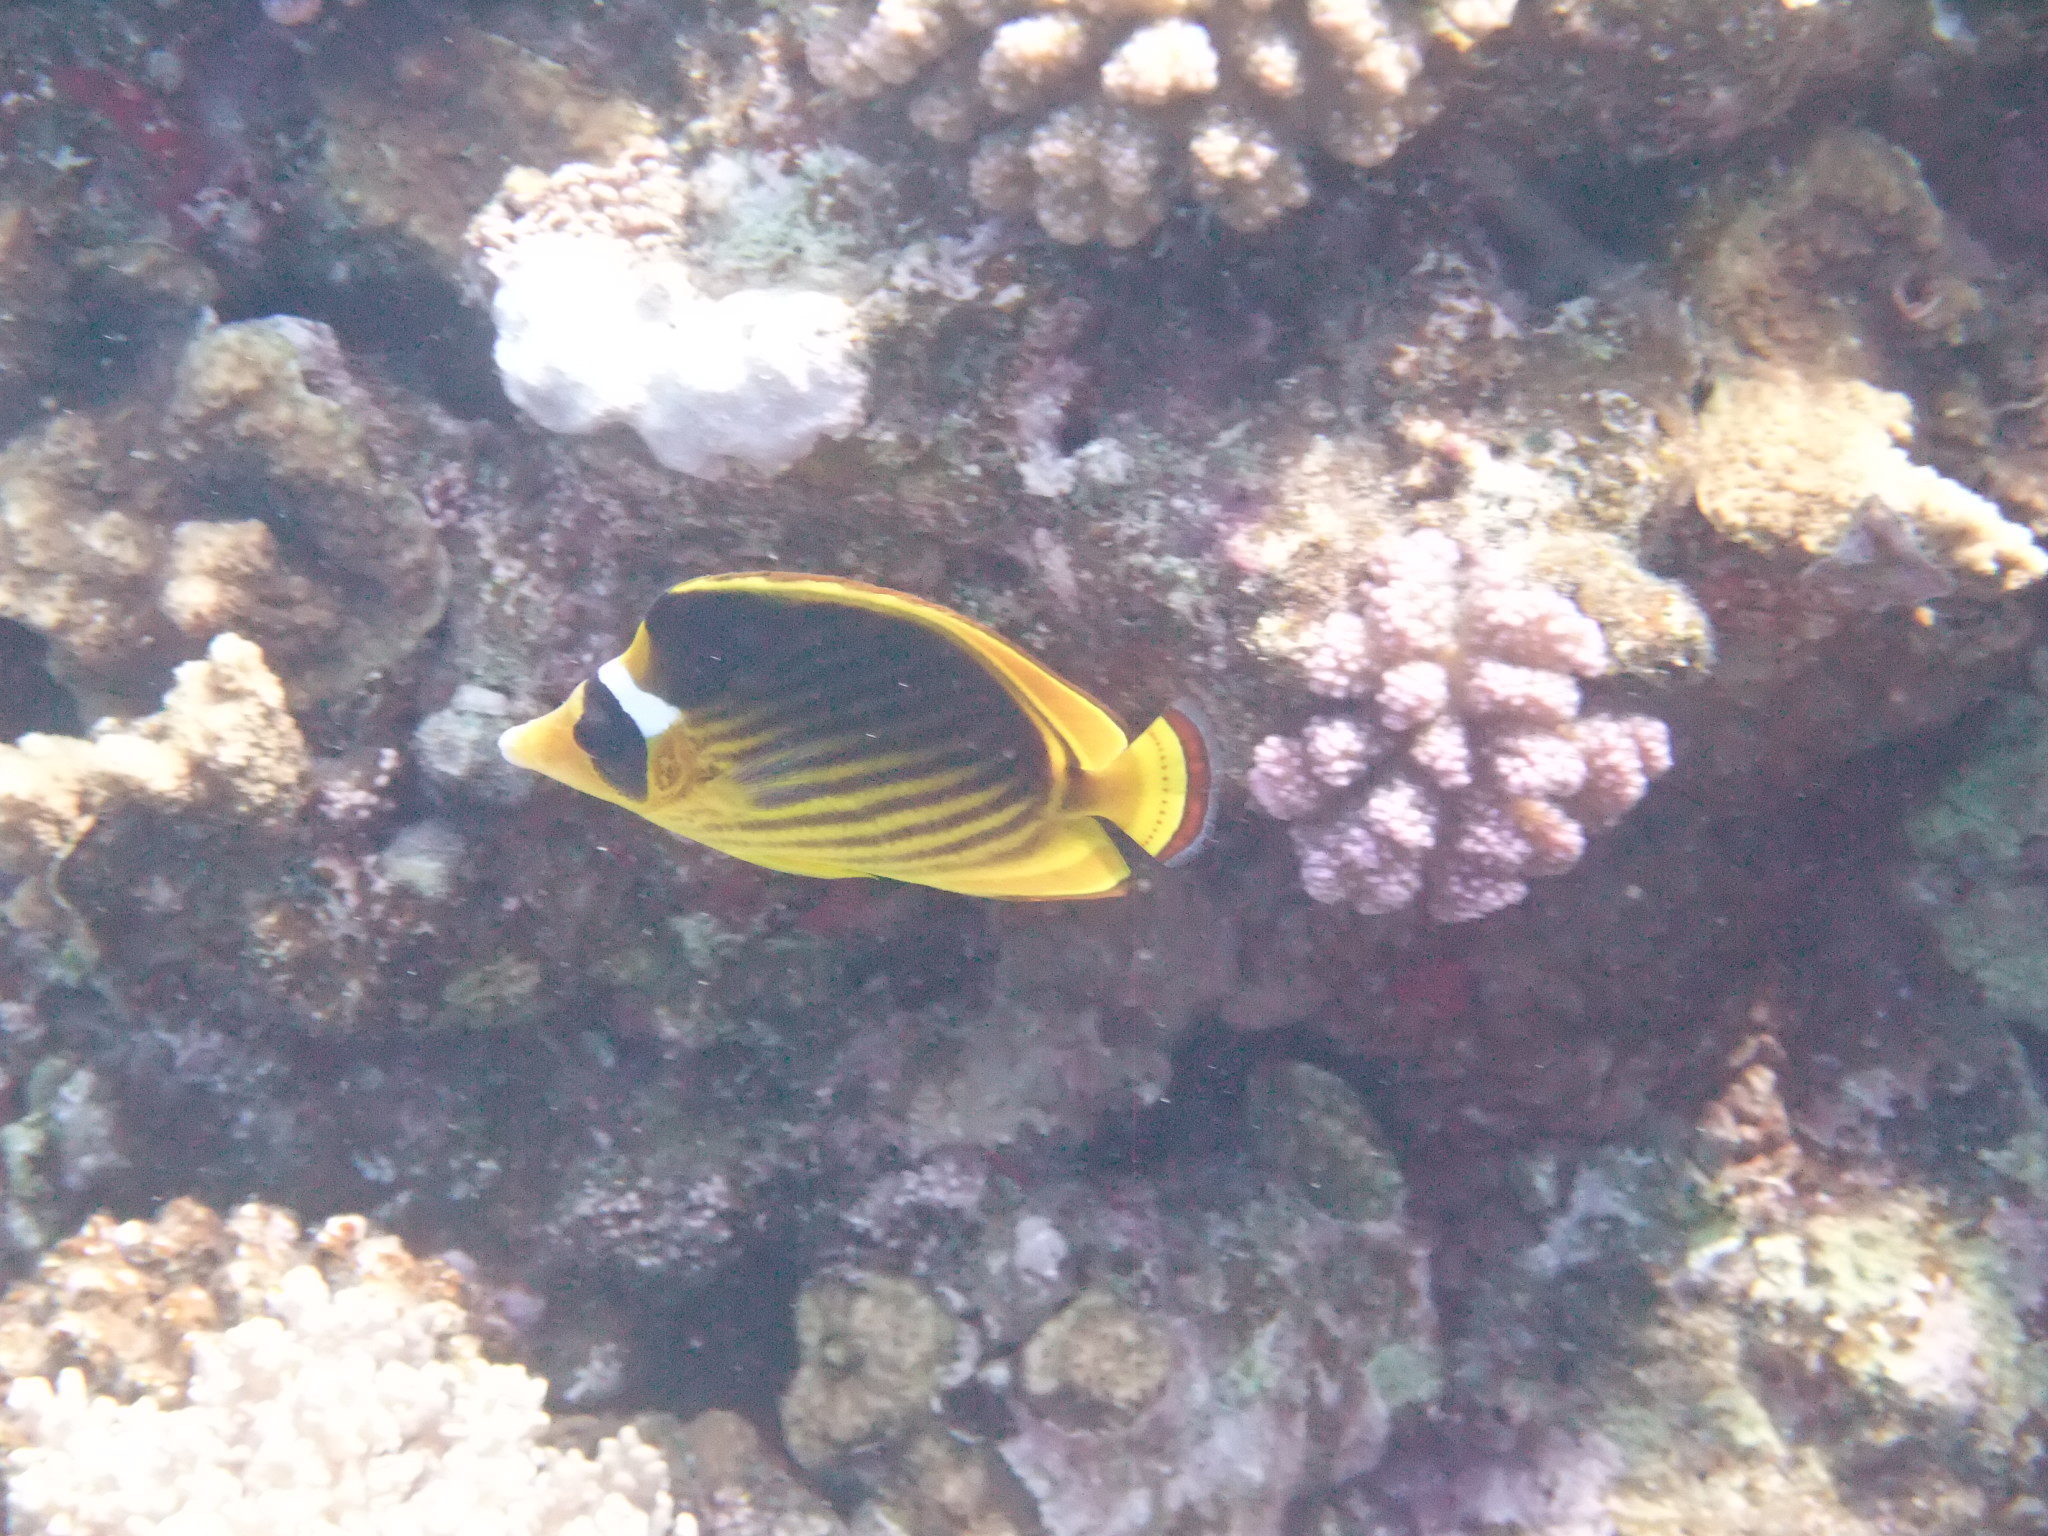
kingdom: Animalia
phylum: Chordata
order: Perciformes
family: Chaetodontidae
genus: Chaetodon
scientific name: Chaetodon fasciatus
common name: Diagonal butterflyfish
